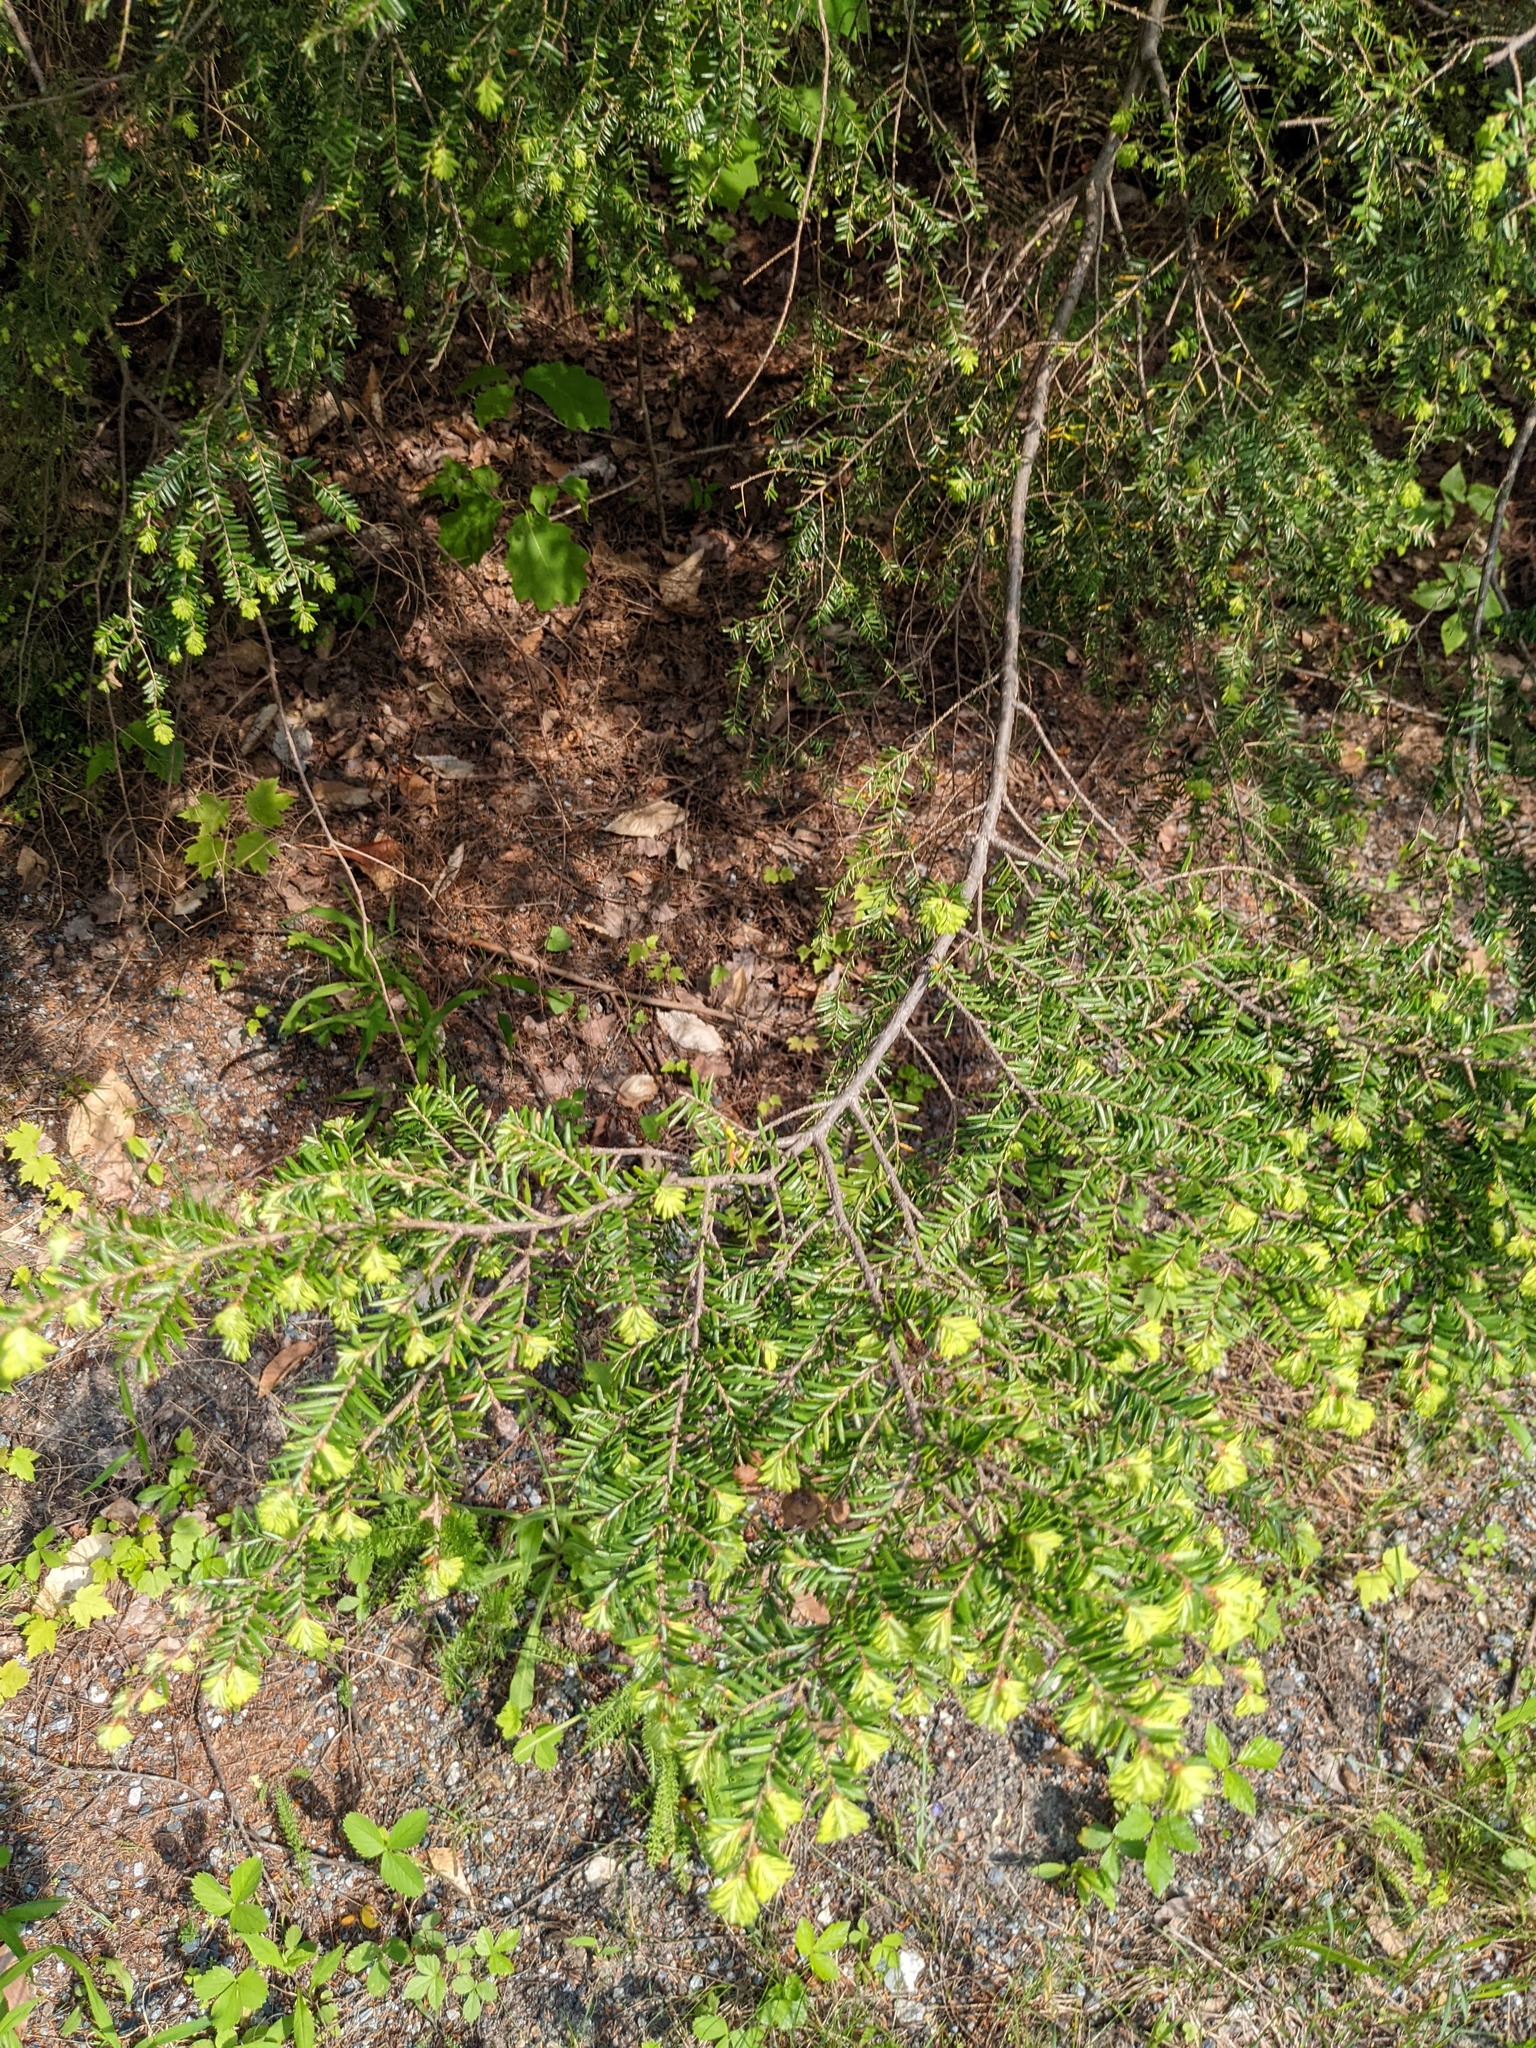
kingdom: Plantae
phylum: Tracheophyta
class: Pinopsida
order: Pinales
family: Pinaceae
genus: Tsuga
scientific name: Tsuga canadensis
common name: Eastern hemlock
